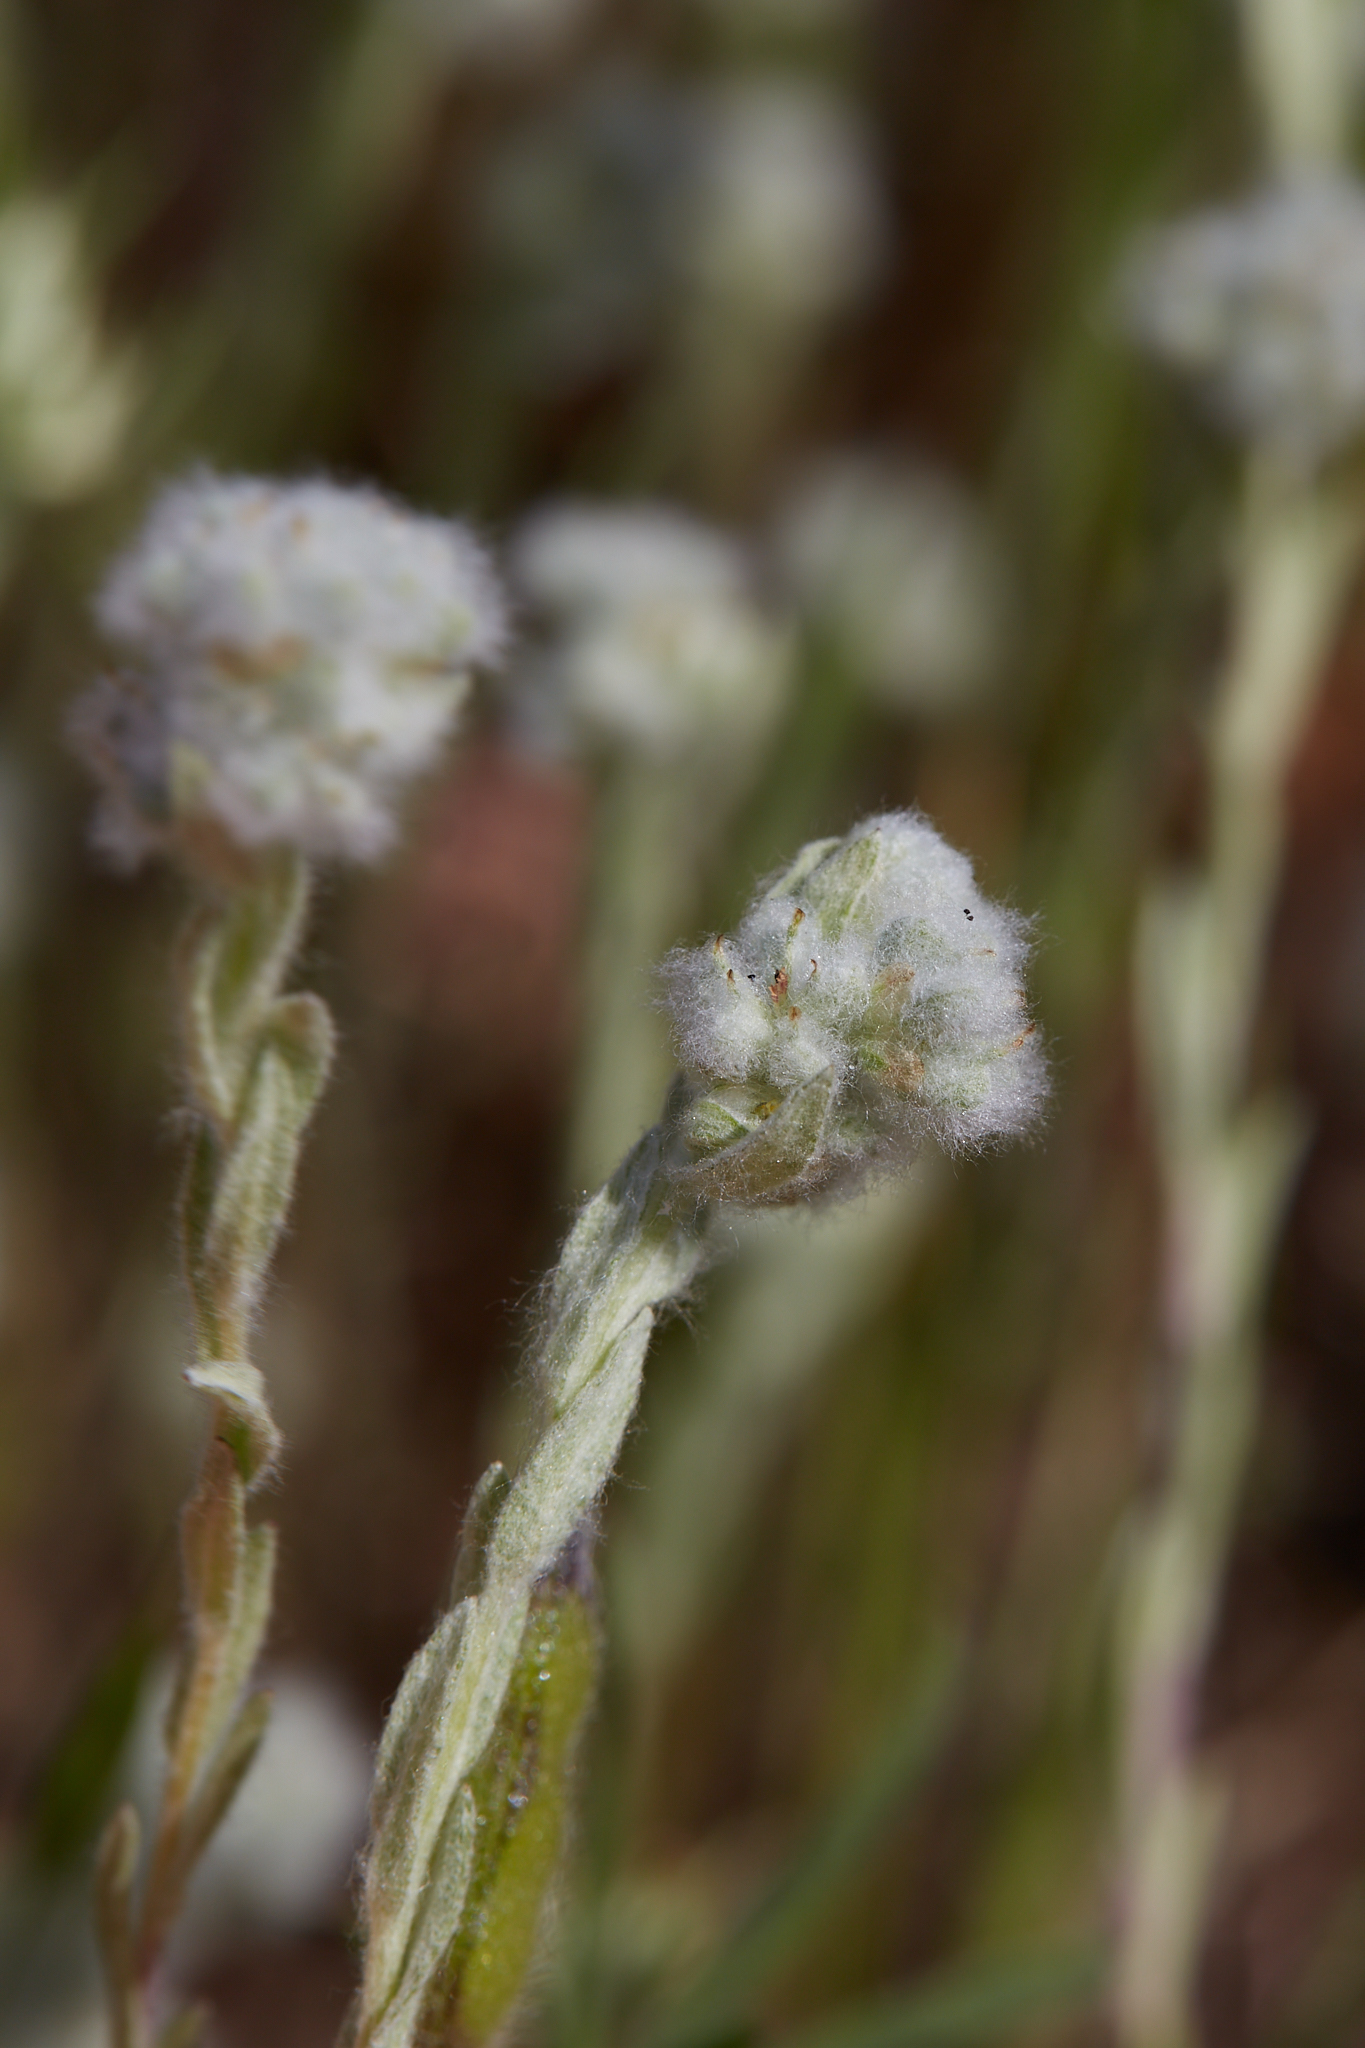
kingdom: Plantae
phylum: Tracheophyta
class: Magnoliopsida
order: Asterales
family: Asteraceae
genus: Bombycilaena
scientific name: Bombycilaena californica
